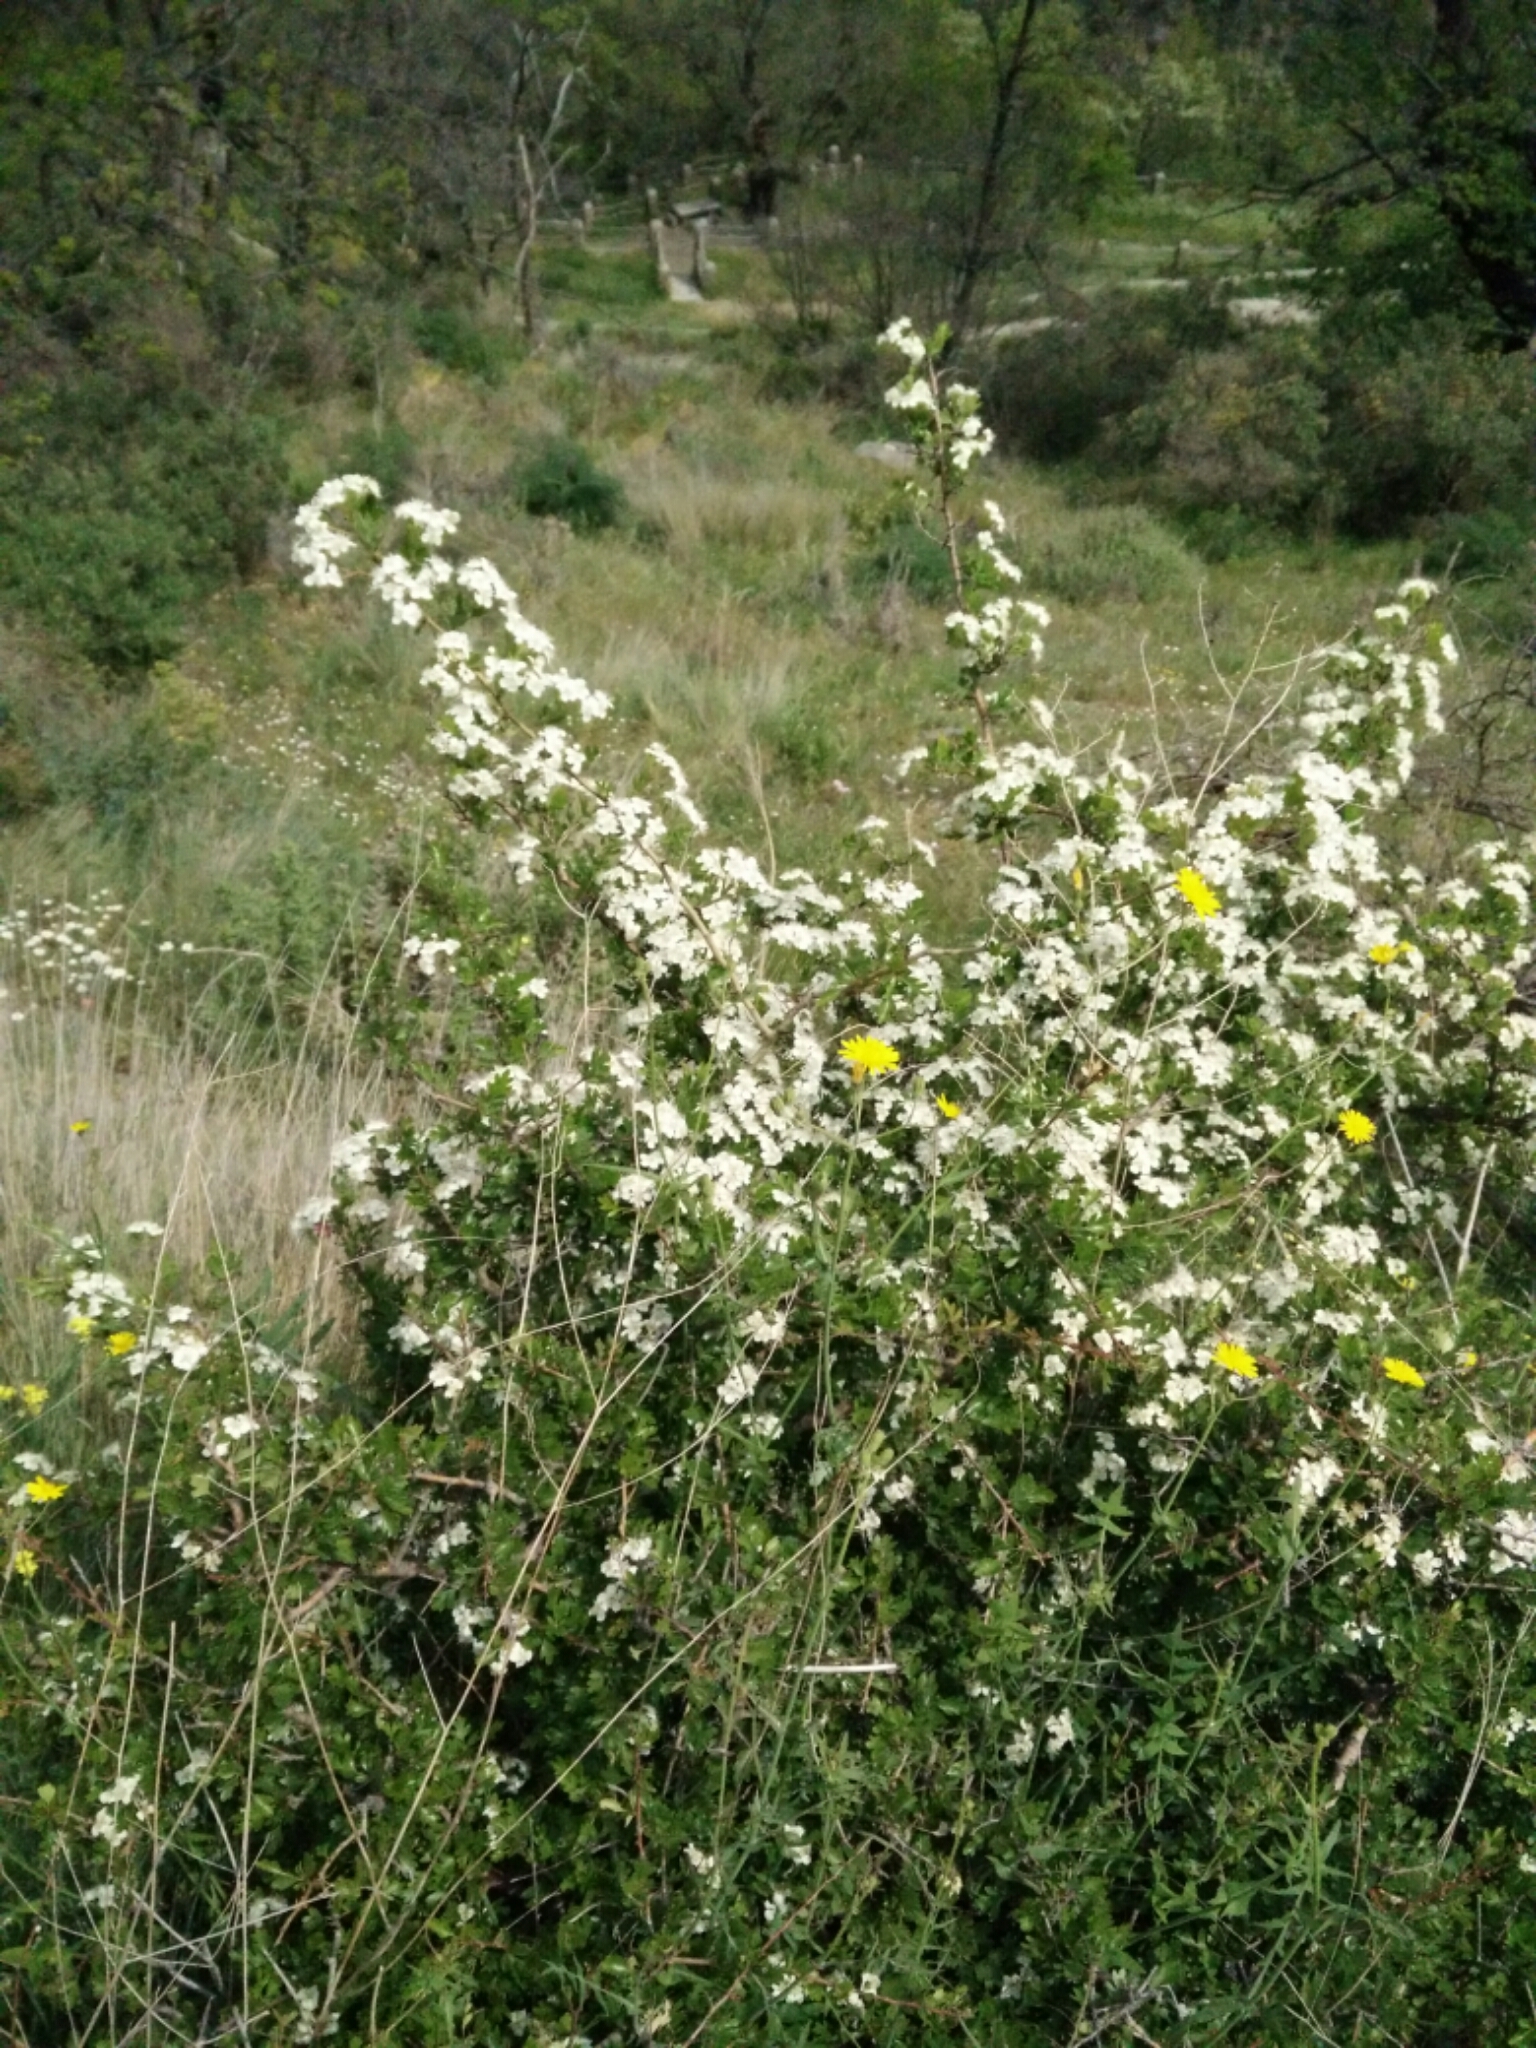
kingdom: Plantae
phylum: Tracheophyta
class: Magnoliopsida
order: Rosales
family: Rosaceae
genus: Crataegus
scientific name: Crataegus monogyna
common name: Hawthorn
